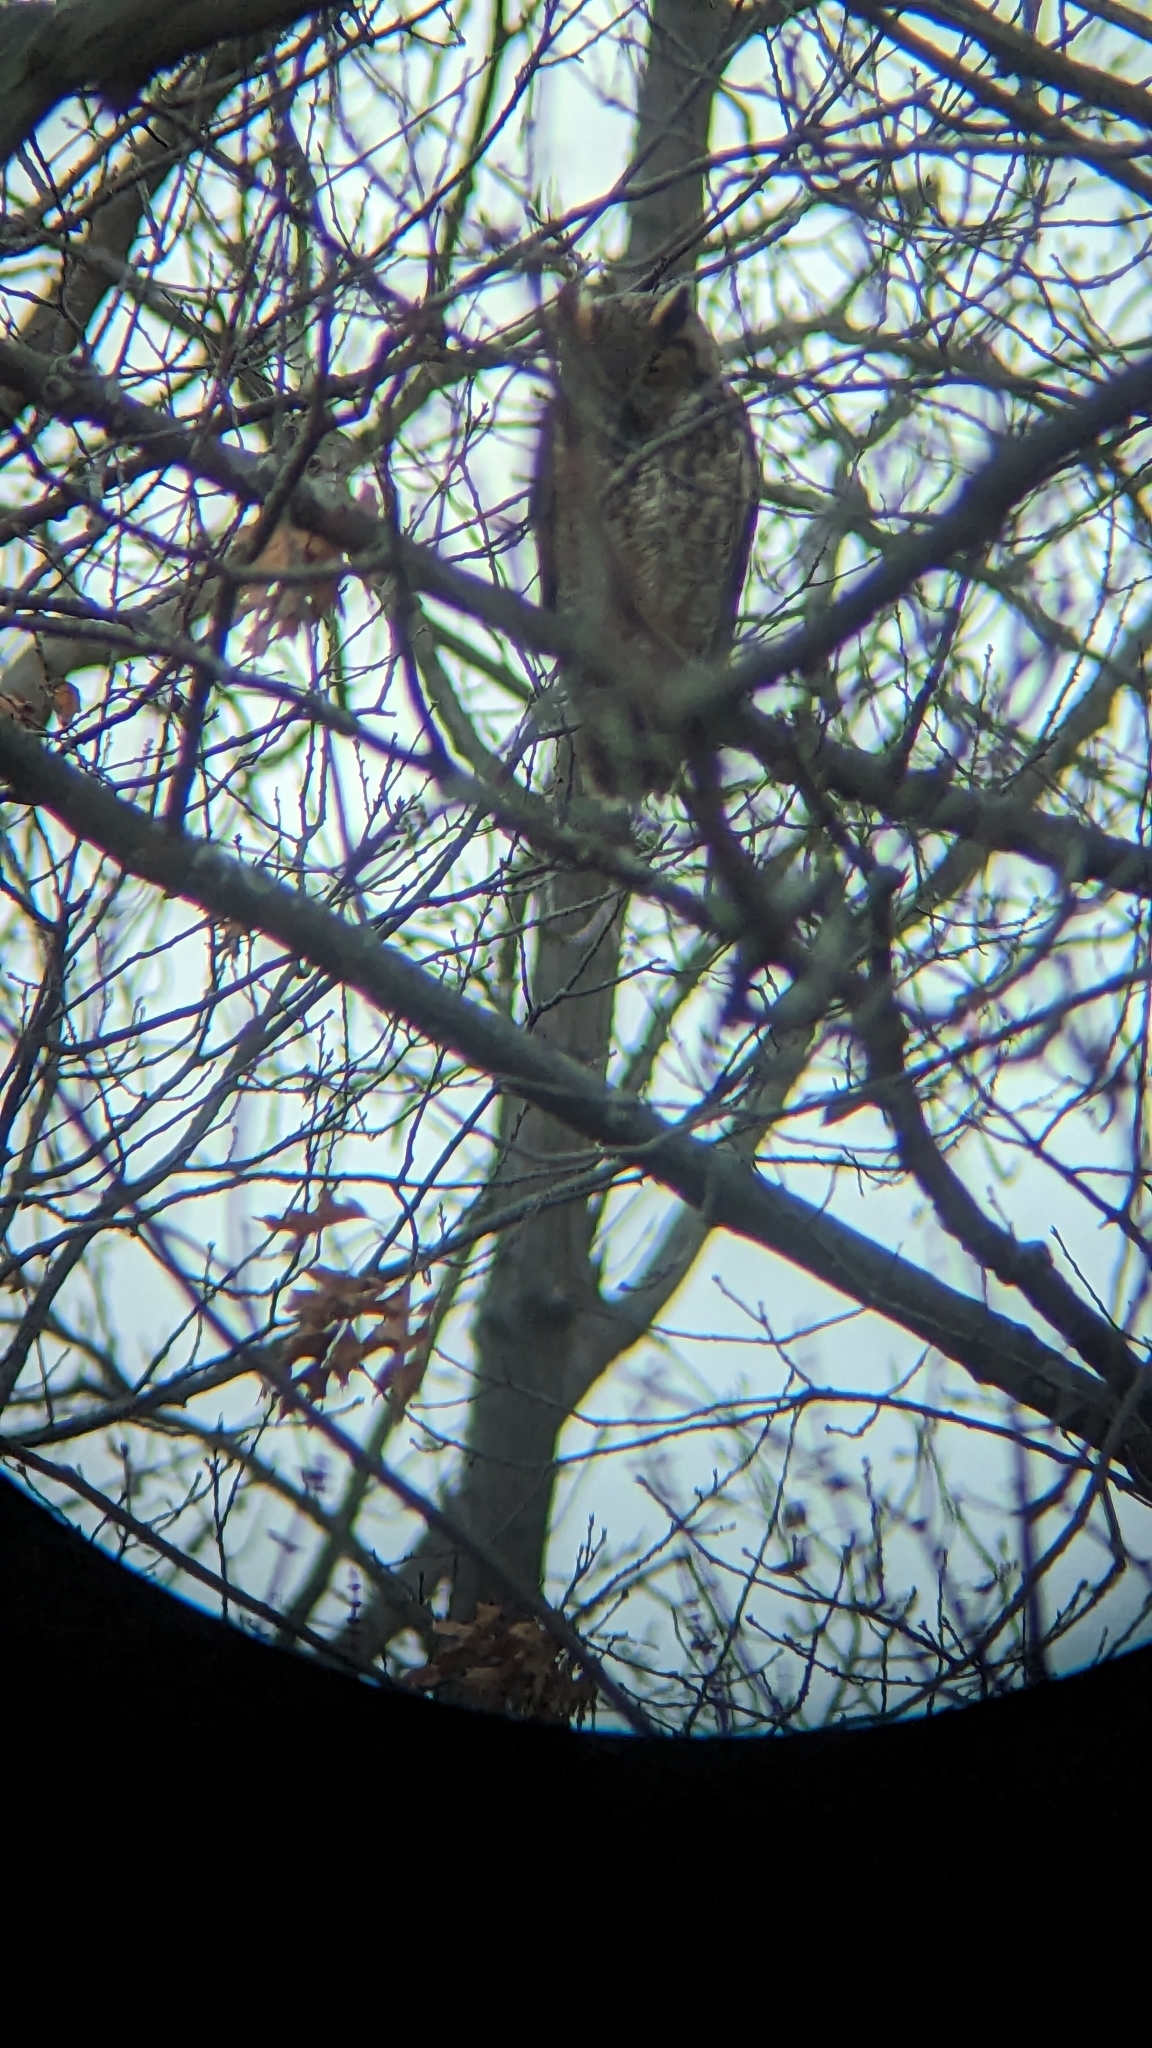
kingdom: Animalia
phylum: Chordata
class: Aves
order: Strigiformes
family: Strigidae
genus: Bubo
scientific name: Bubo virginianus
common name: Great horned owl
